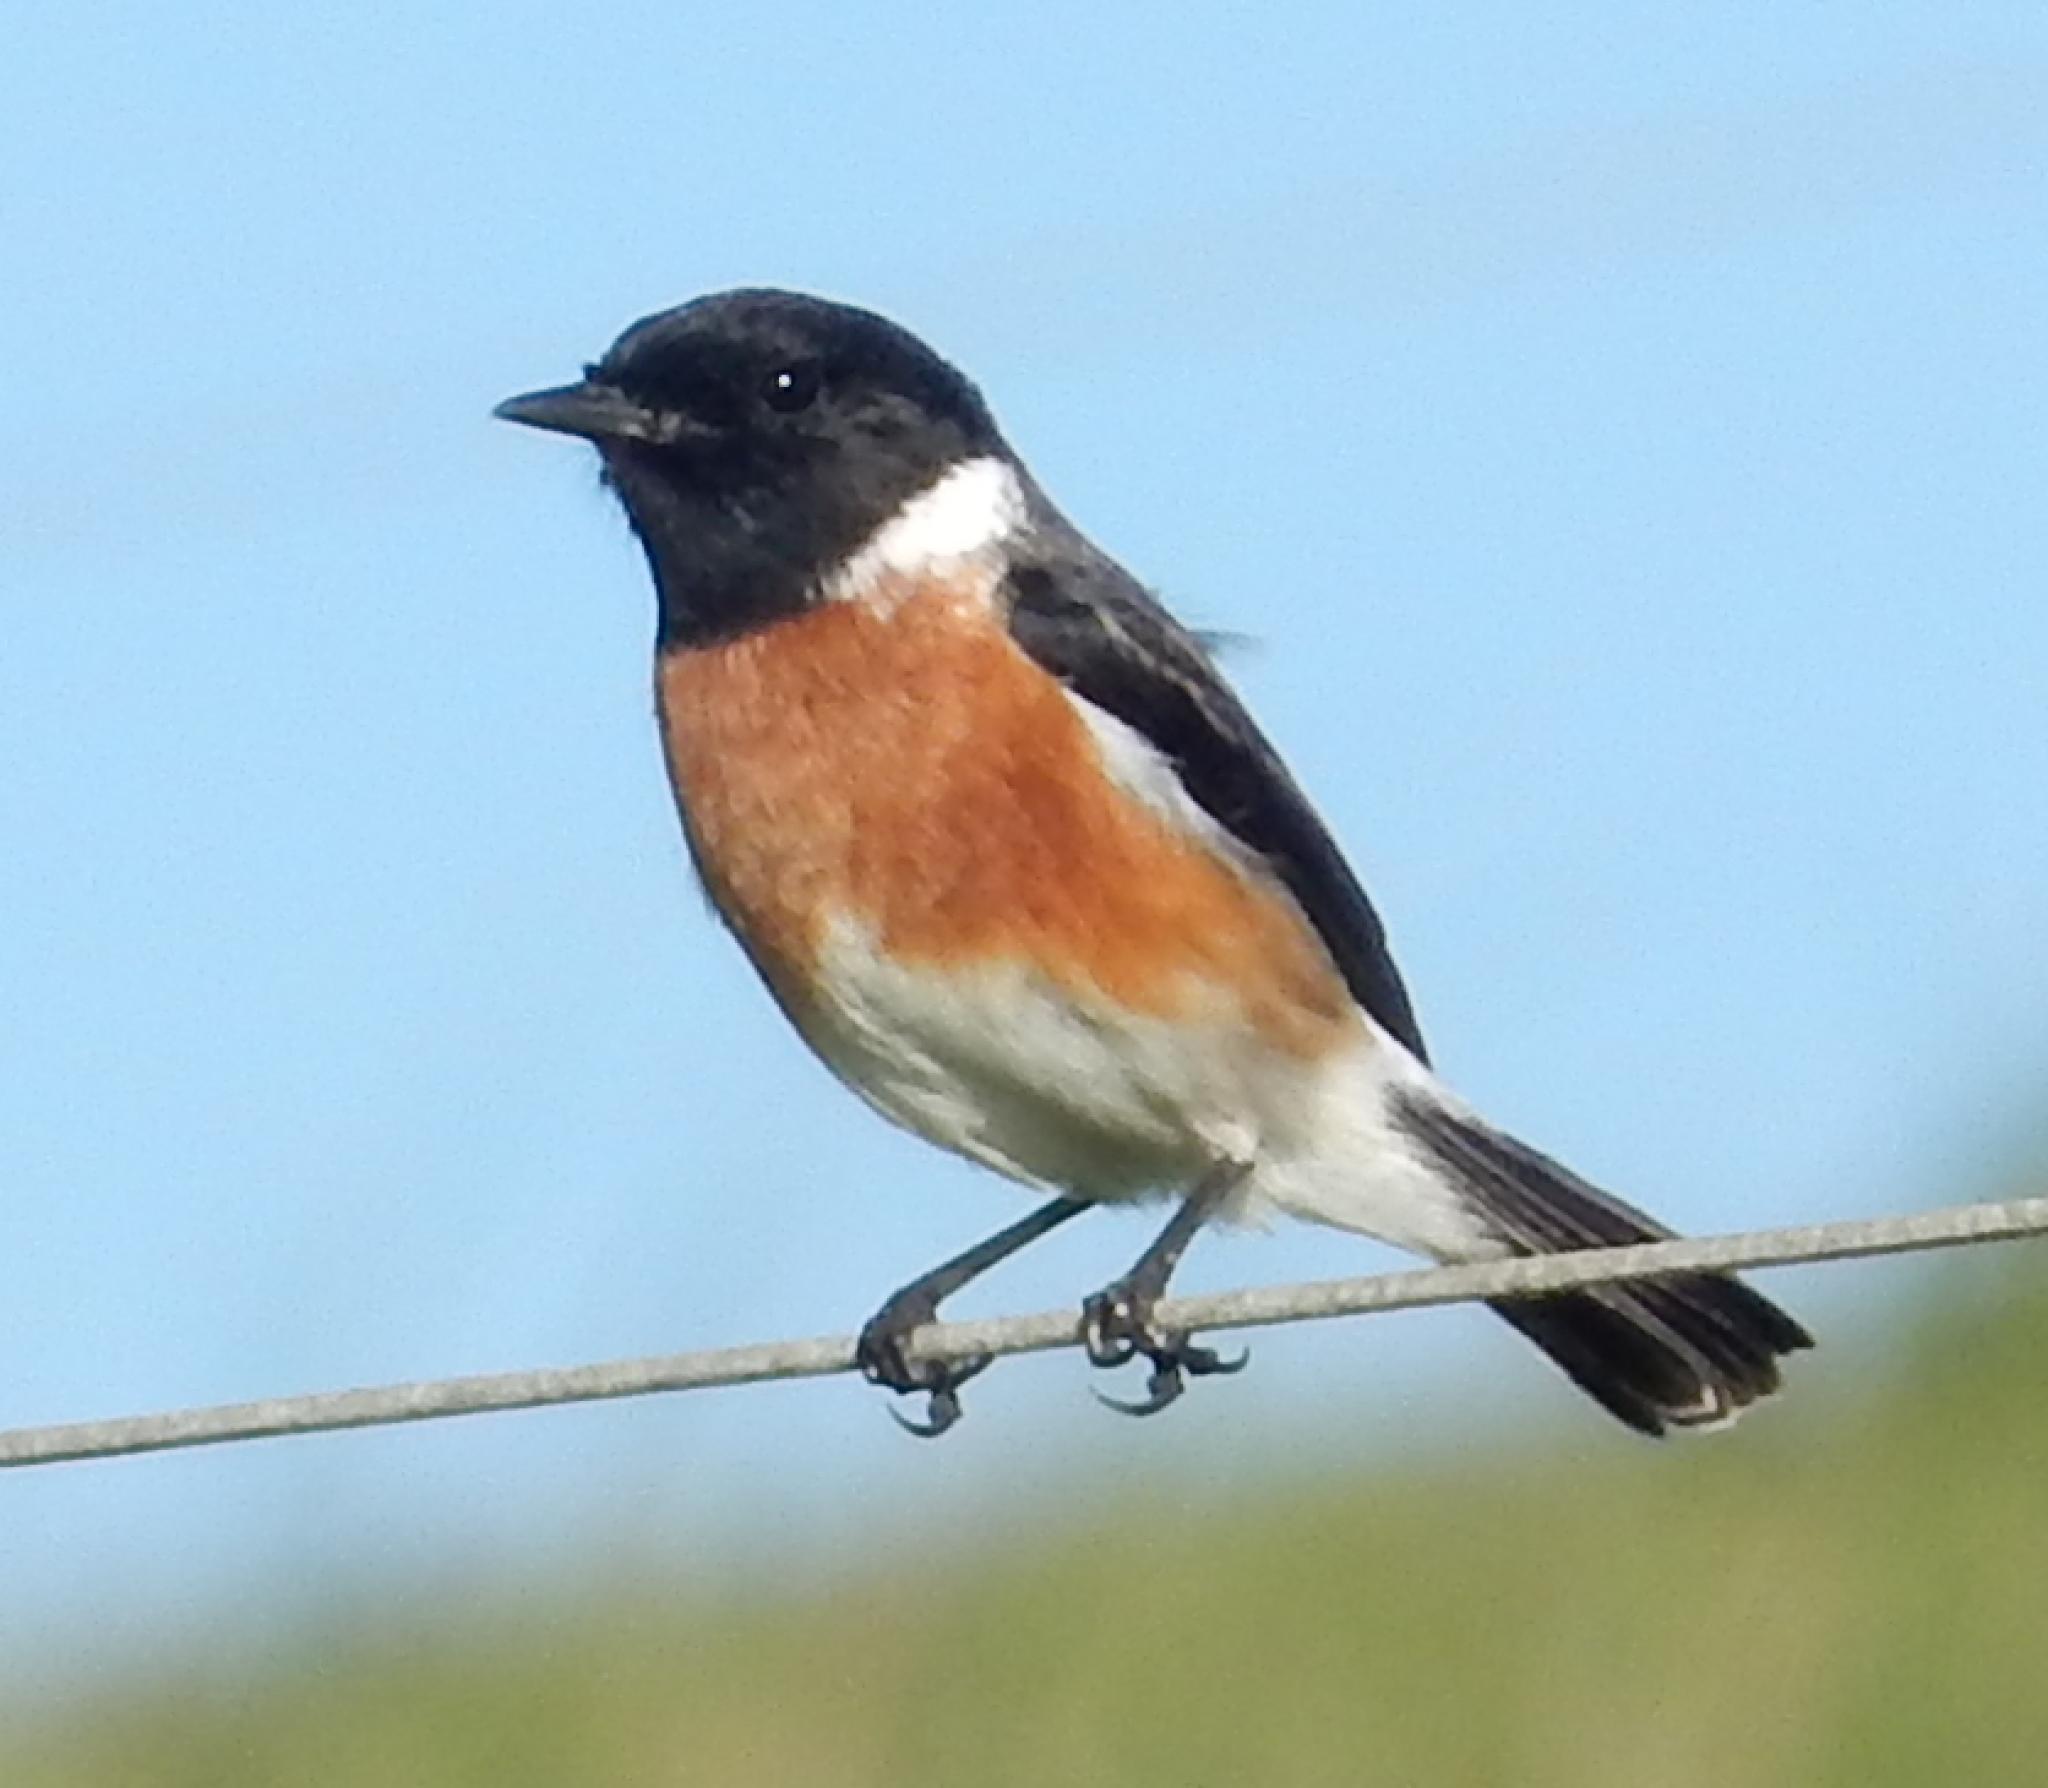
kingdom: Animalia
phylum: Chordata
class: Aves
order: Passeriformes
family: Muscicapidae
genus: Saxicola
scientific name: Saxicola torquatus
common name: African stonechat
